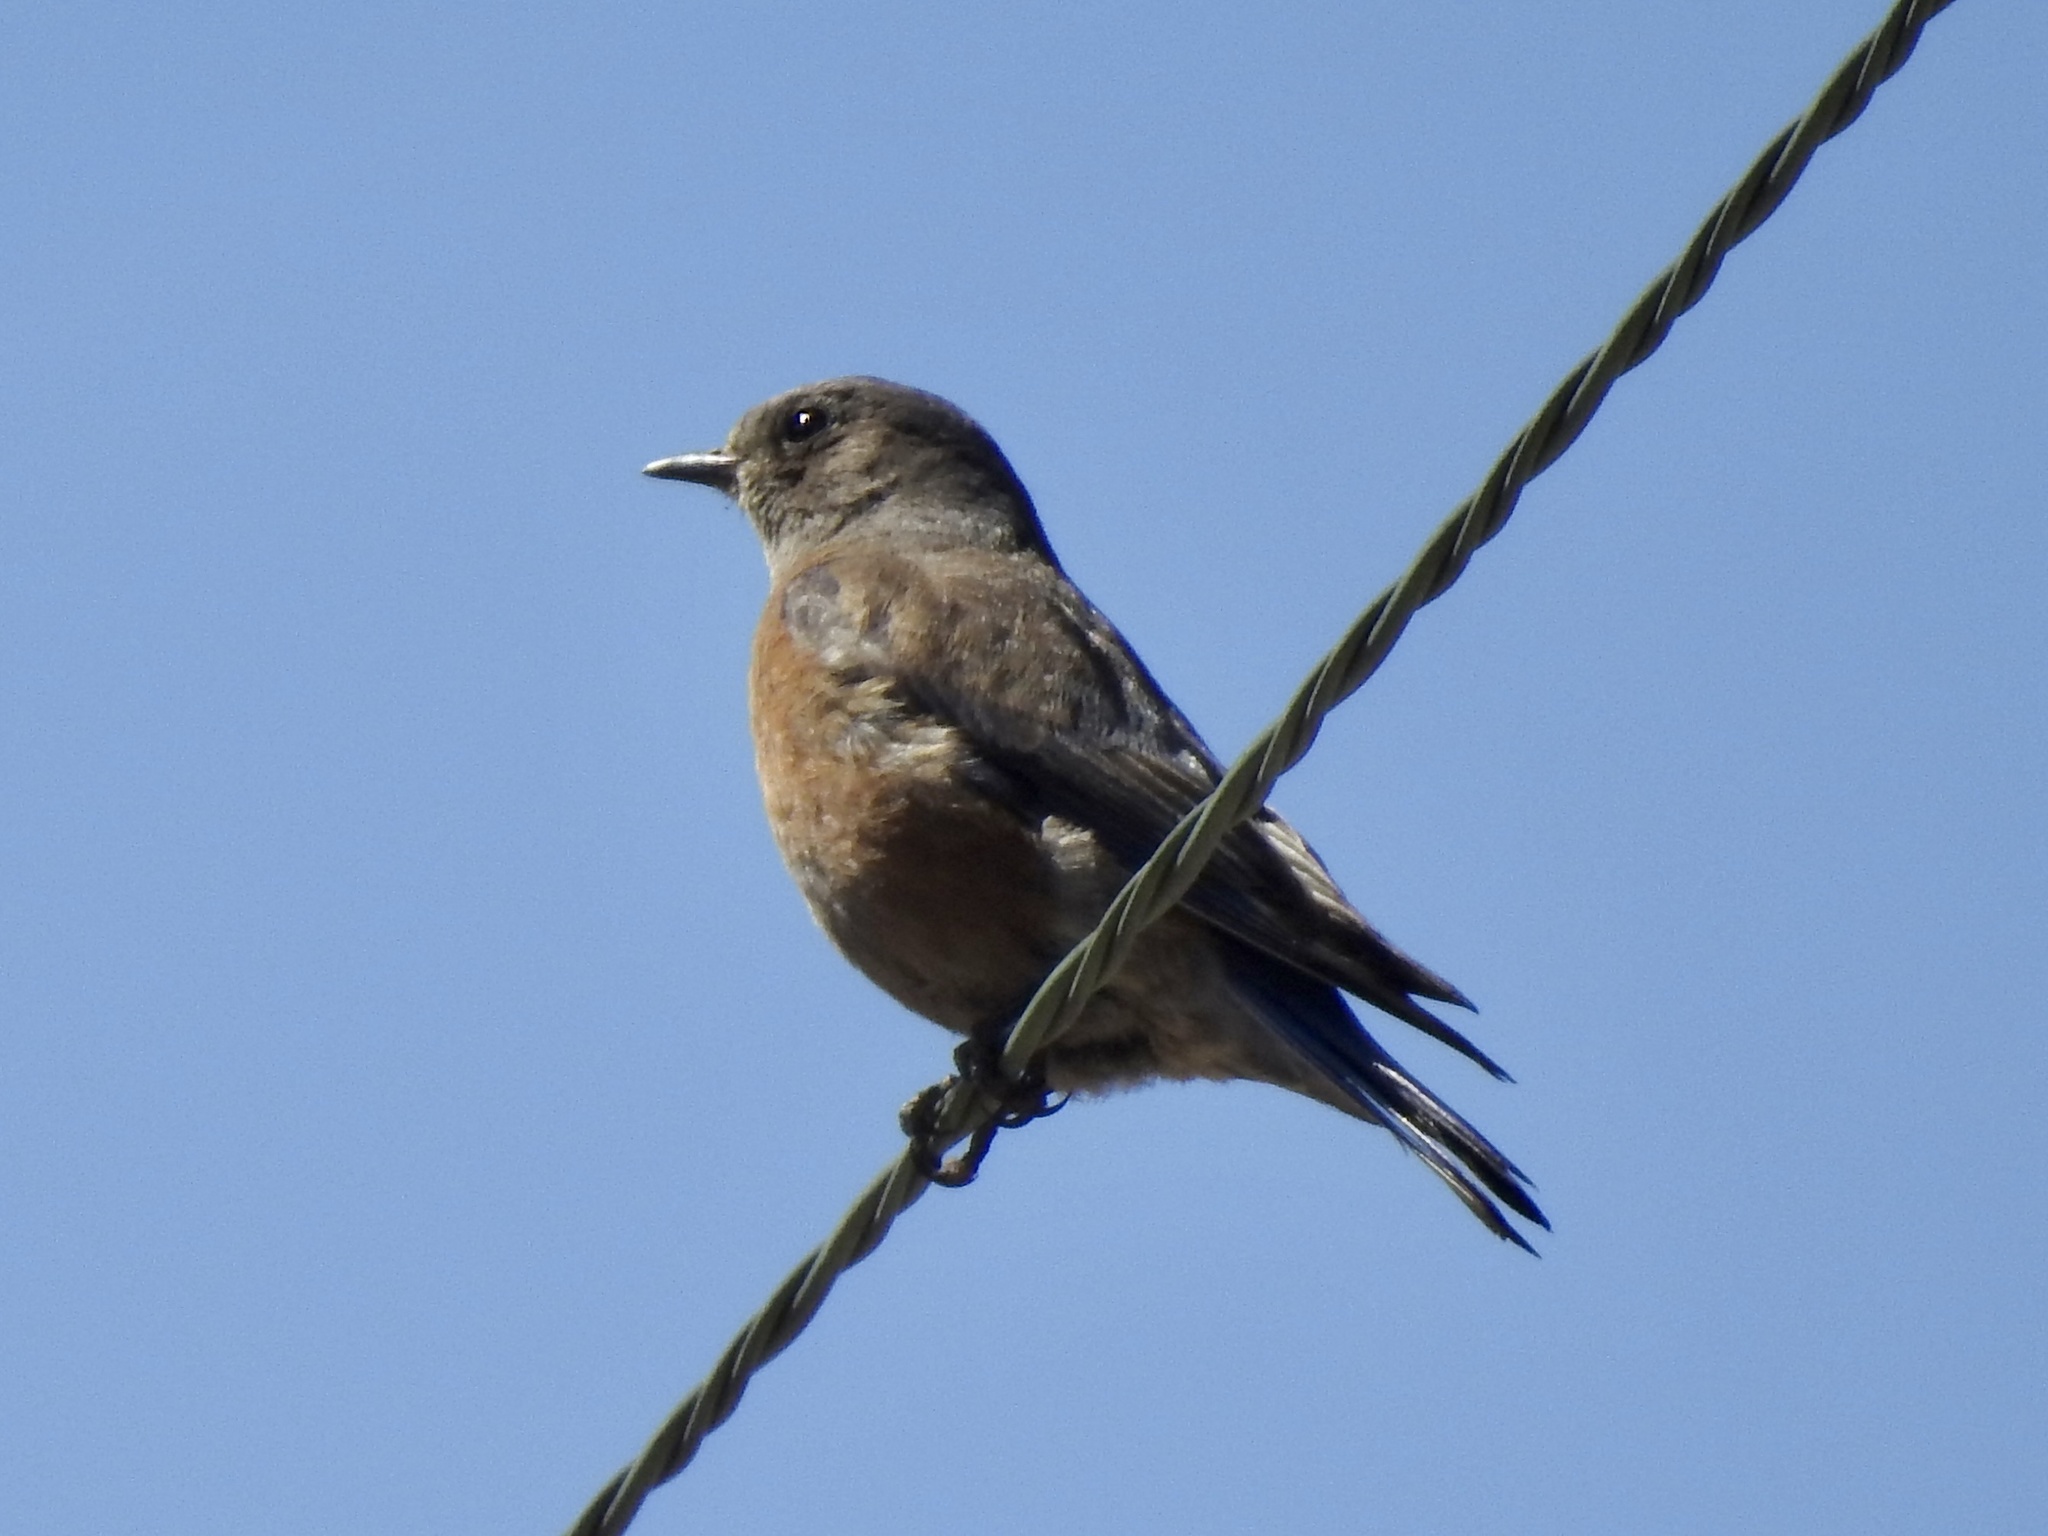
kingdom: Animalia
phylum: Chordata
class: Aves
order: Passeriformes
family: Turdidae
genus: Sialia
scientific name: Sialia mexicana
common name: Western bluebird
